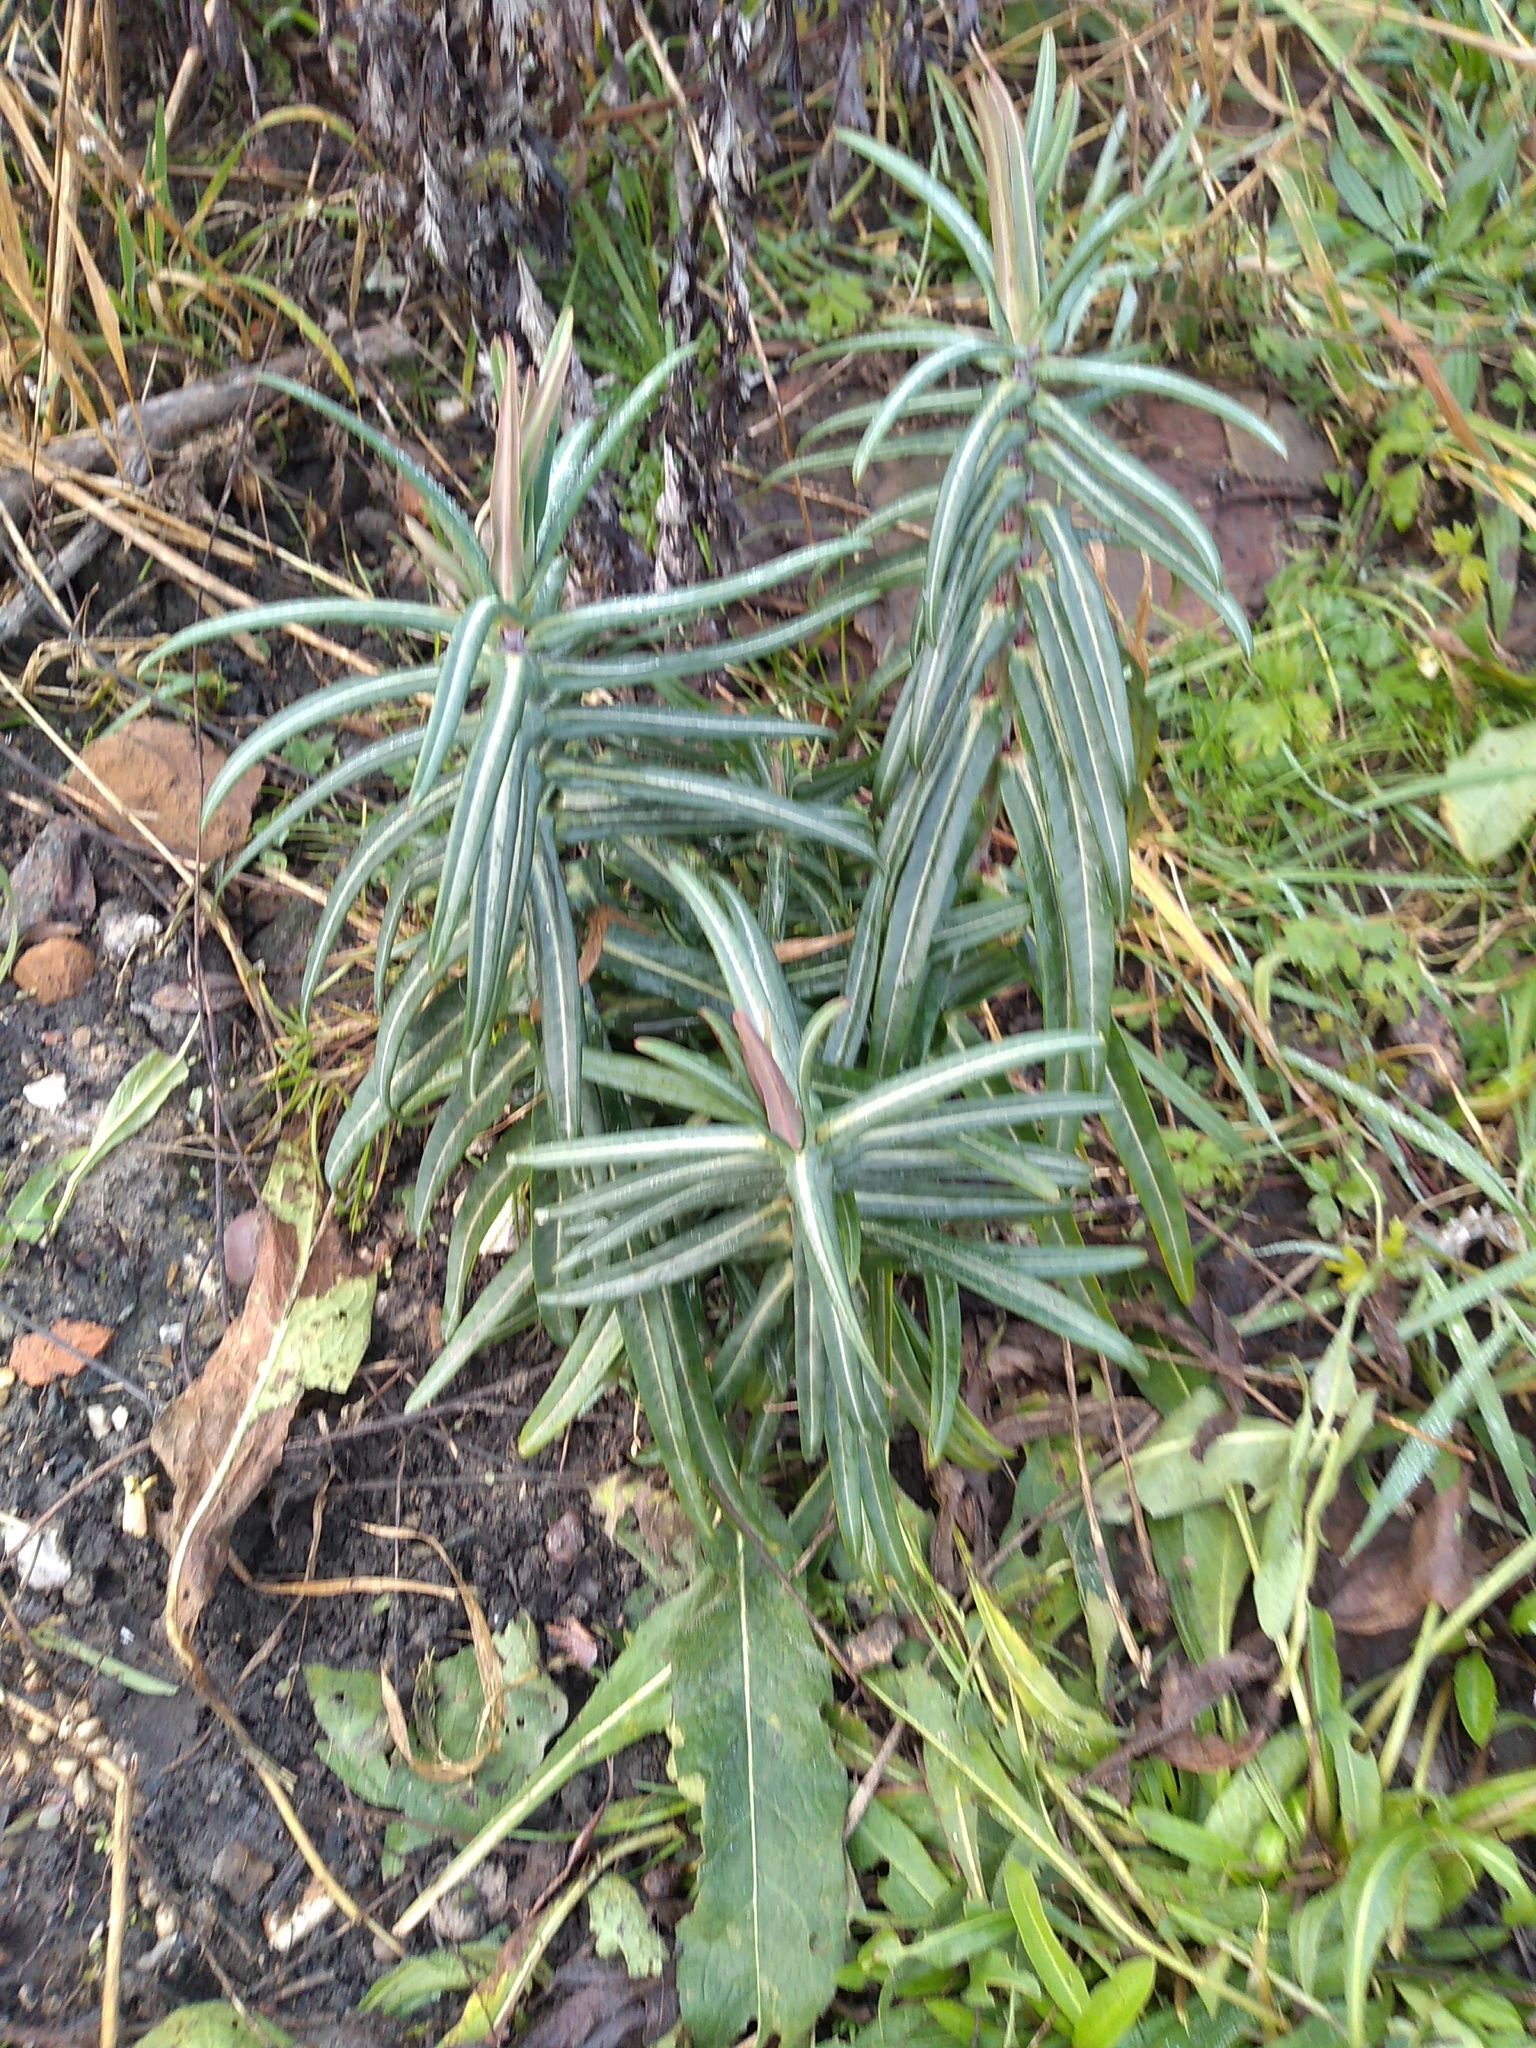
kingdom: Plantae
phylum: Tracheophyta
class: Magnoliopsida
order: Malpighiales
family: Euphorbiaceae
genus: Euphorbia
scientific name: Euphorbia lathyris
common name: Caper spurge
